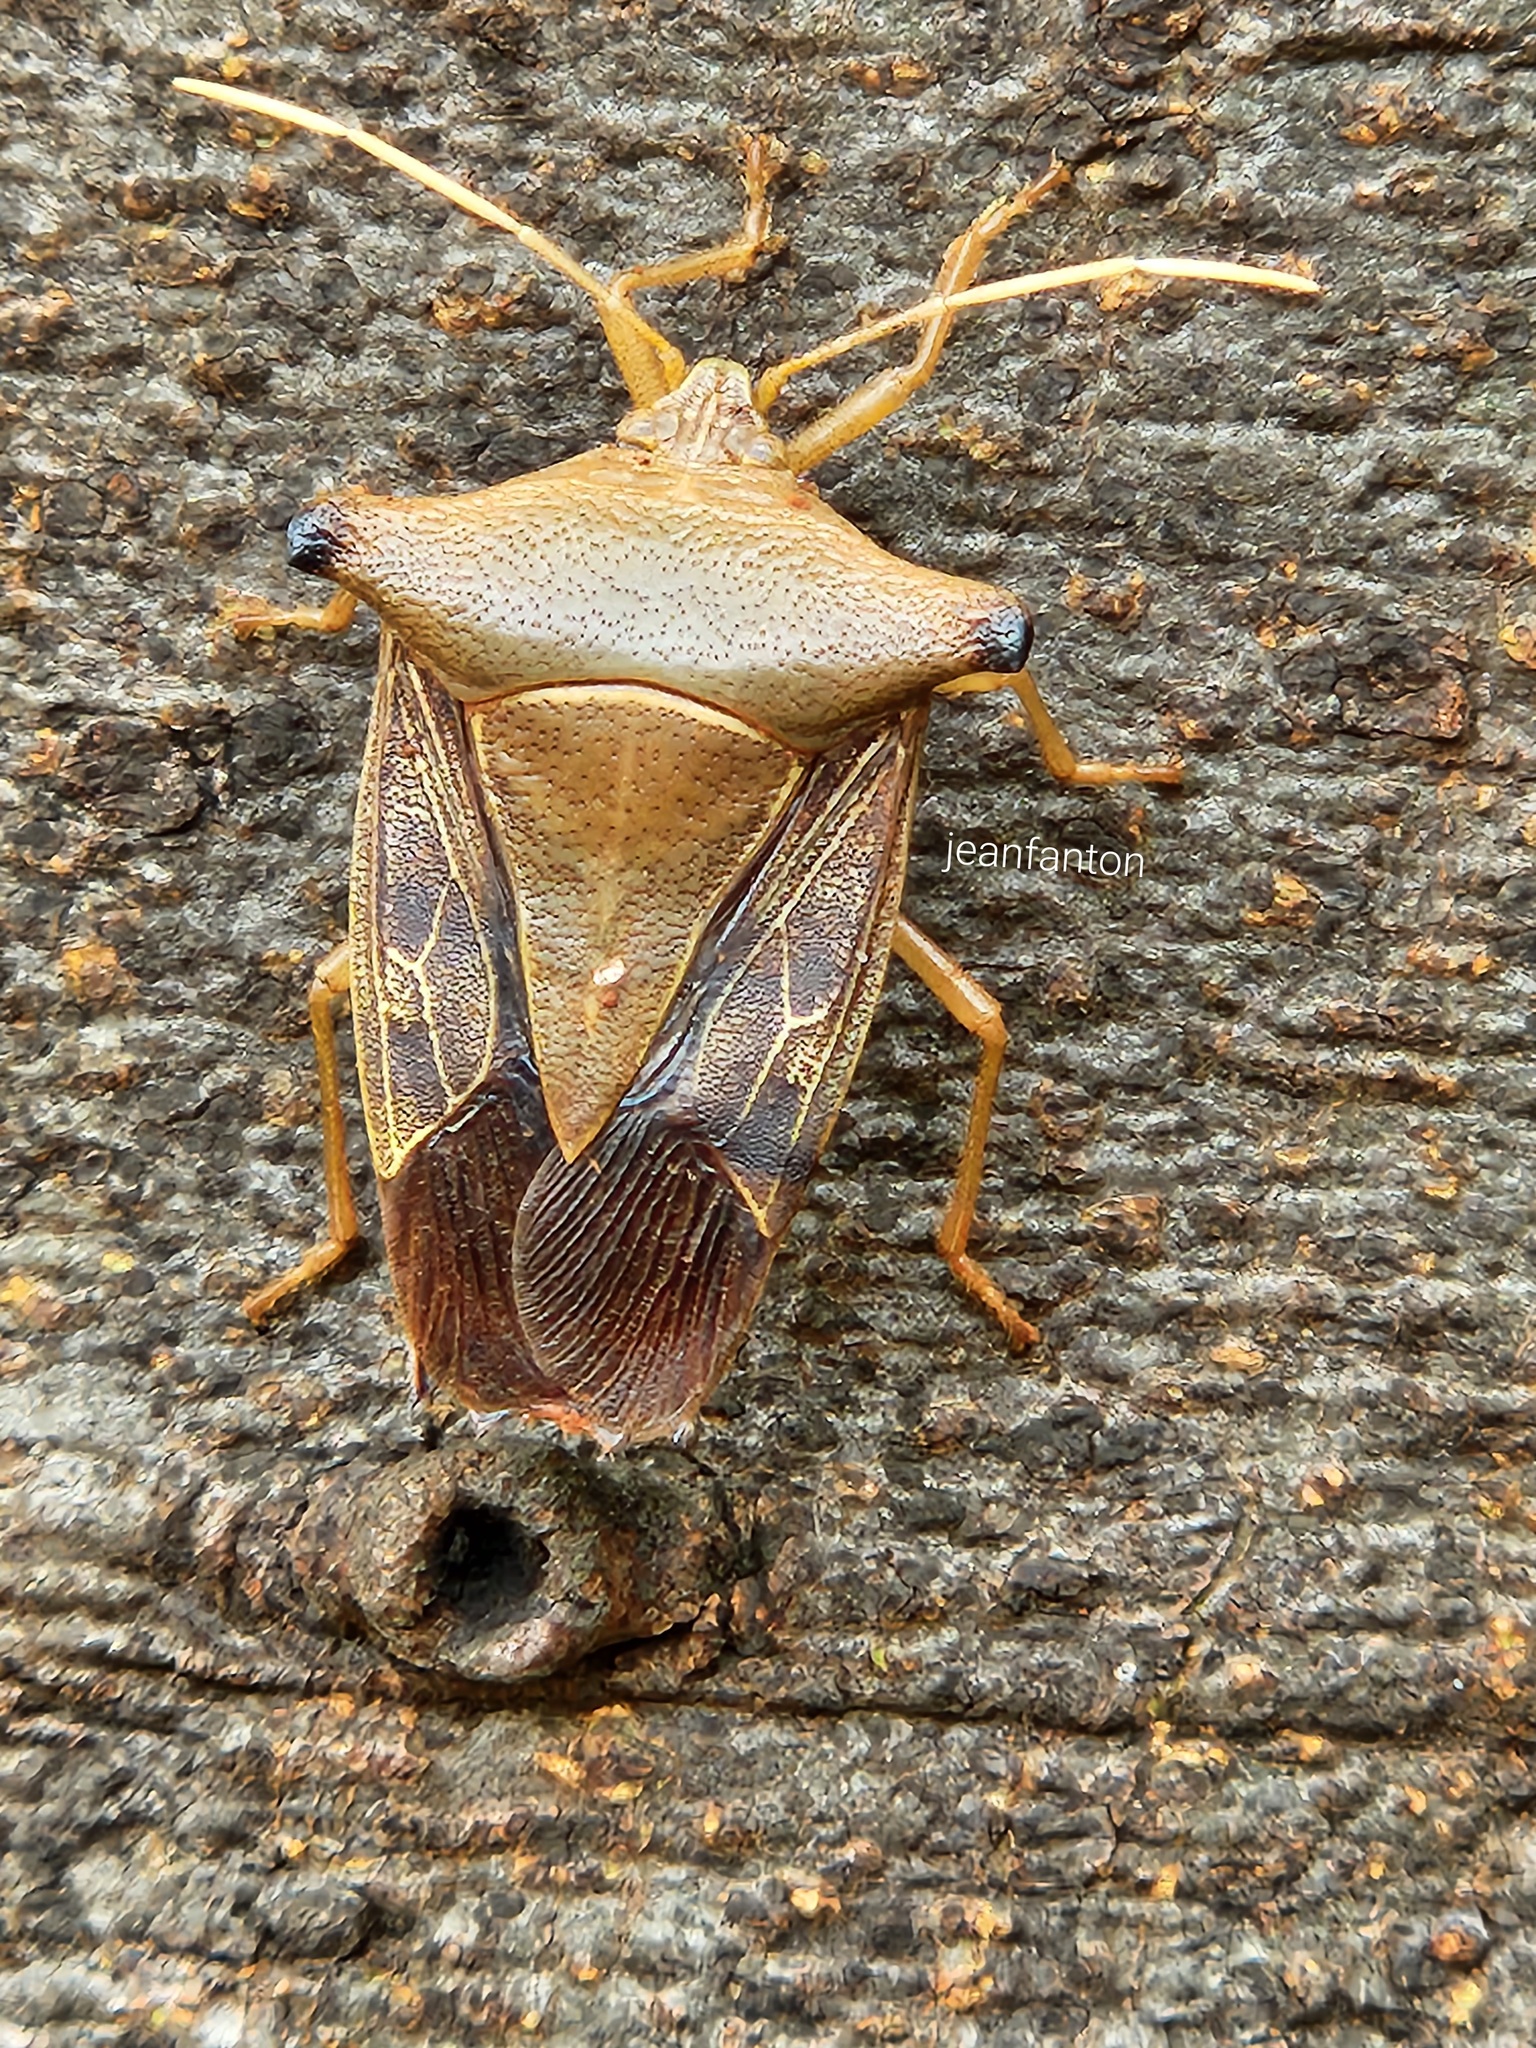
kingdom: Animalia
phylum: Arthropoda
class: Insecta
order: Hemiptera
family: Pentatomidae
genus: Edessa
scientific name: Edessa
